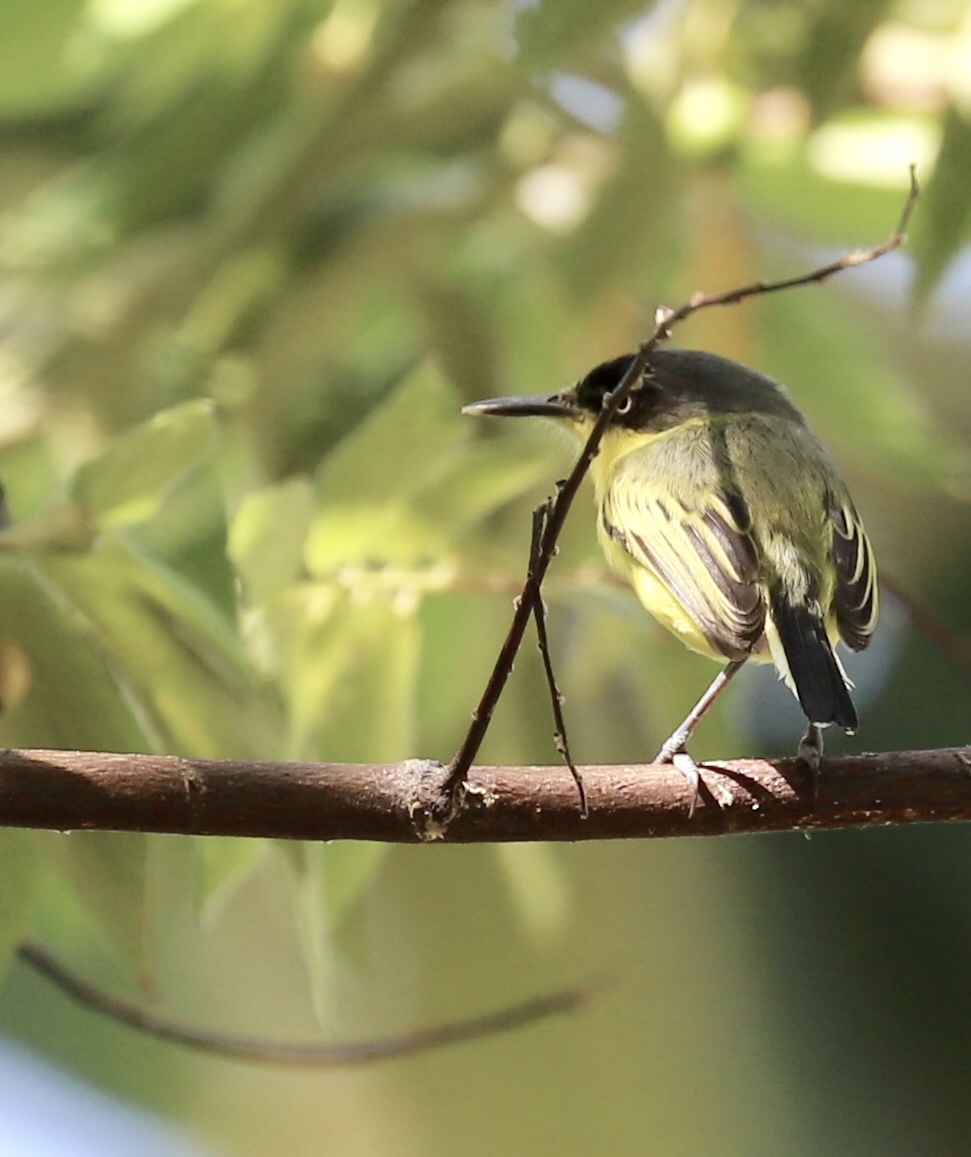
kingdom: Animalia
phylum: Chordata
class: Aves
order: Passeriformes
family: Tyrannidae
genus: Todirostrum
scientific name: Todirostrum cinereum
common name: Common tody-flycatcher
